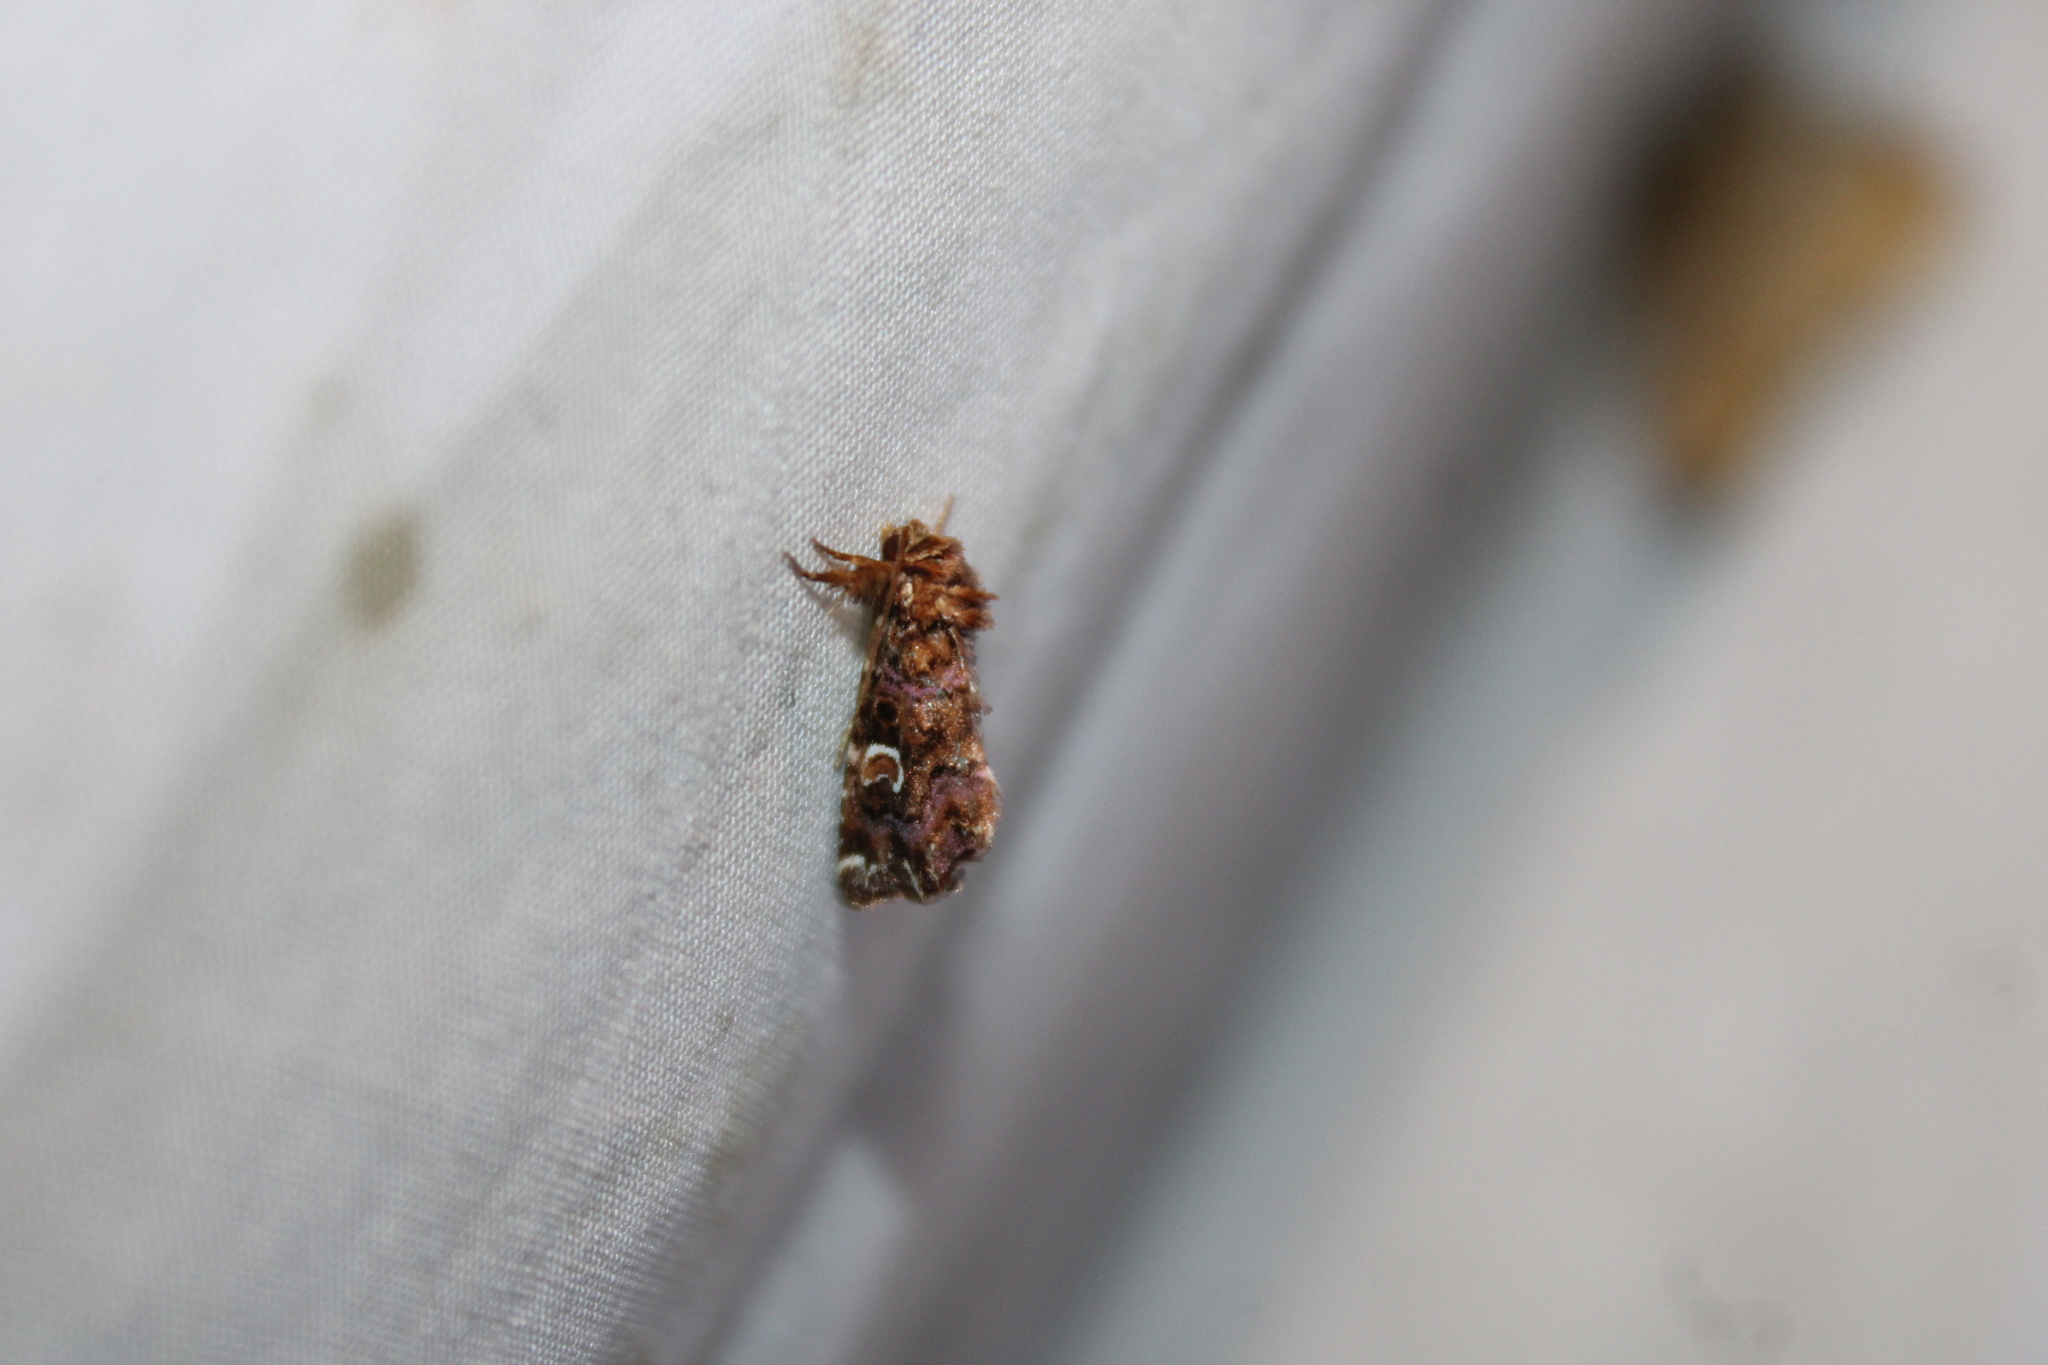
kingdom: Animalia
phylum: Arthropoda
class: Insecta
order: Lepidoptera
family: Noctuidae
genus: Callopistria
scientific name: Callopistria mollissima
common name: Pink-shaded fern moth
